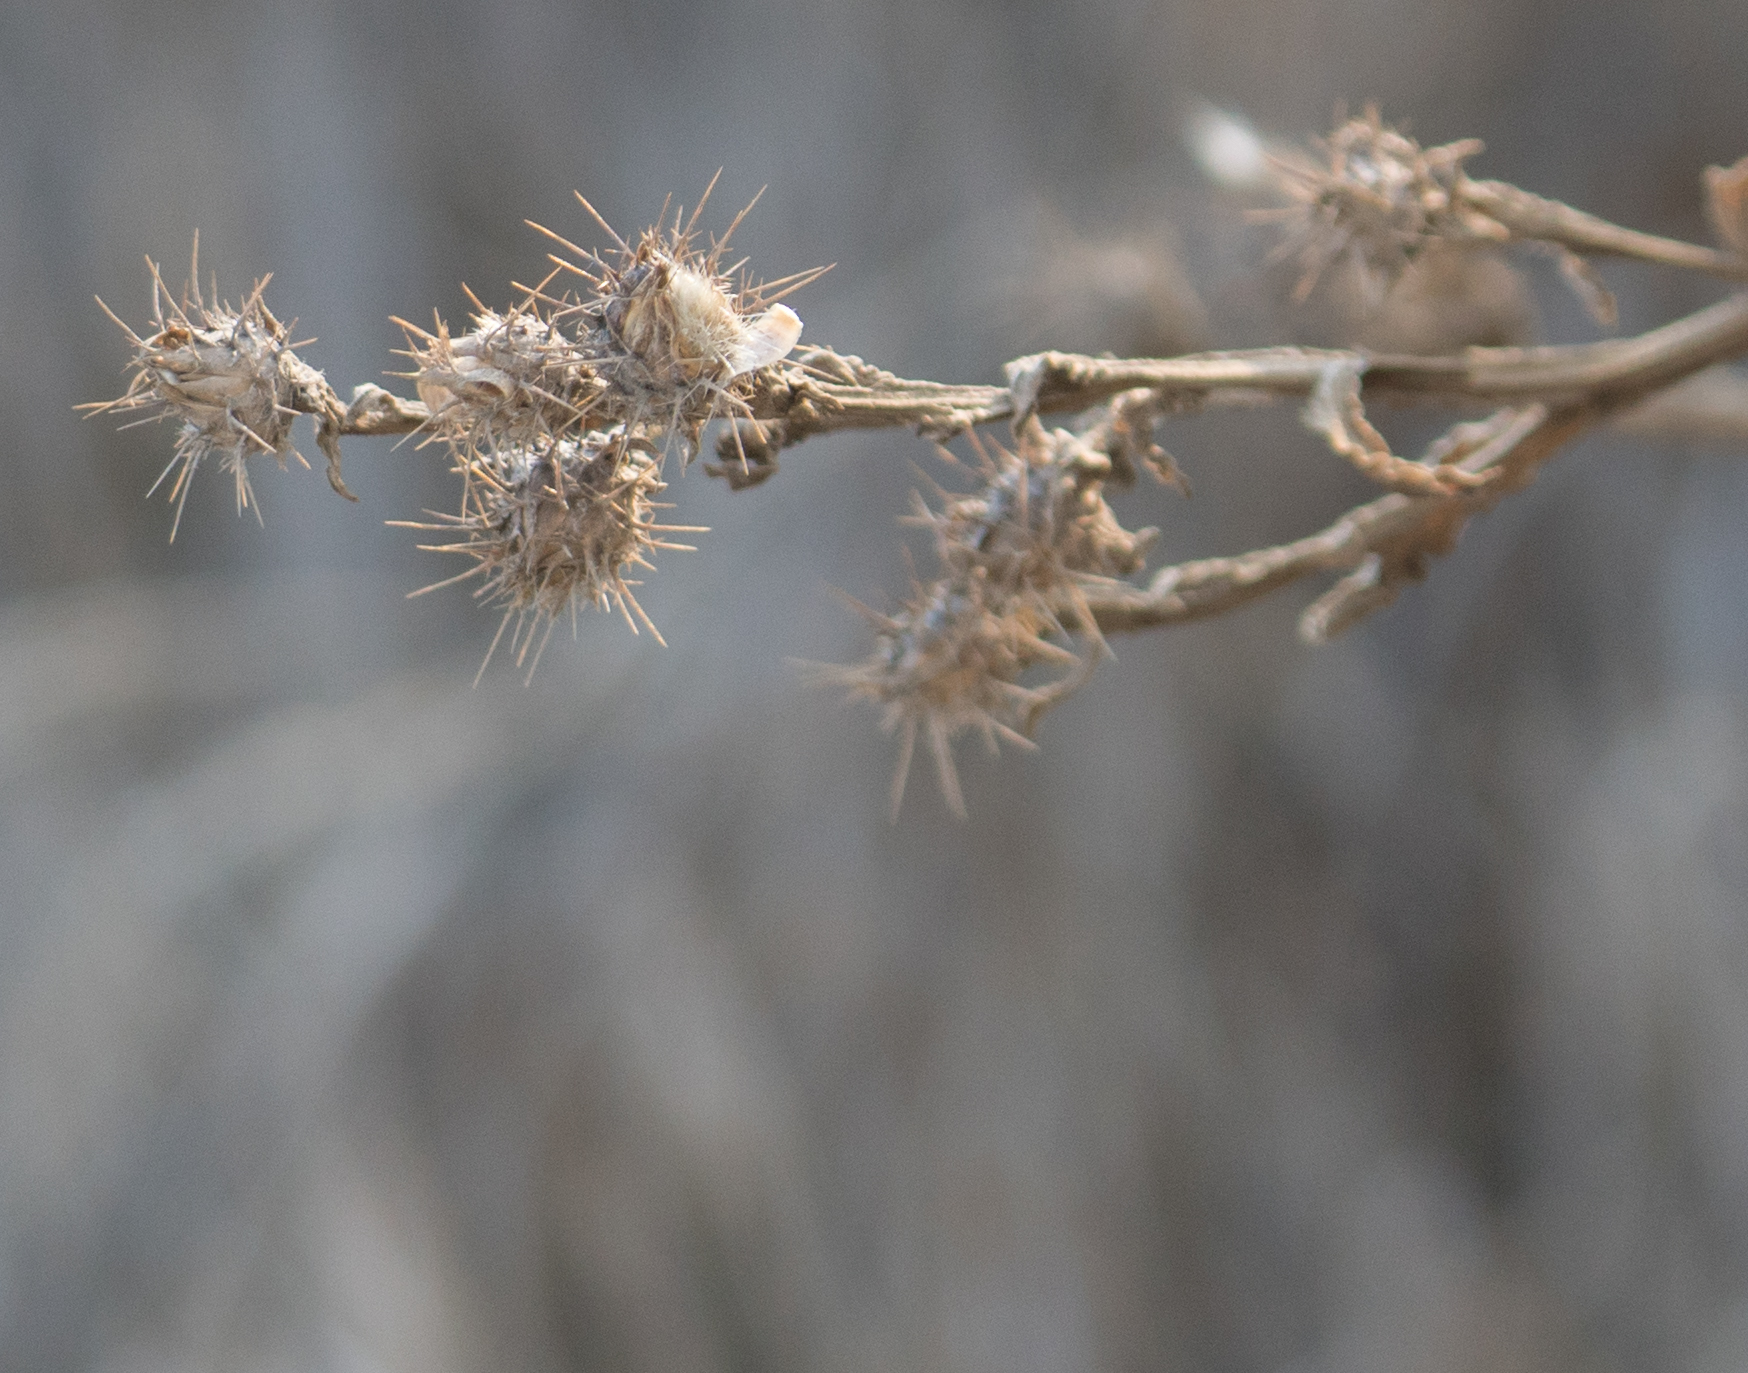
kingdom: Plantae
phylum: Tracheophyta
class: Magnoliopsida
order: Asterales
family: Asteraceae
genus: Centaurea
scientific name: Centaurea melitensis
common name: Maltese star-thistle
